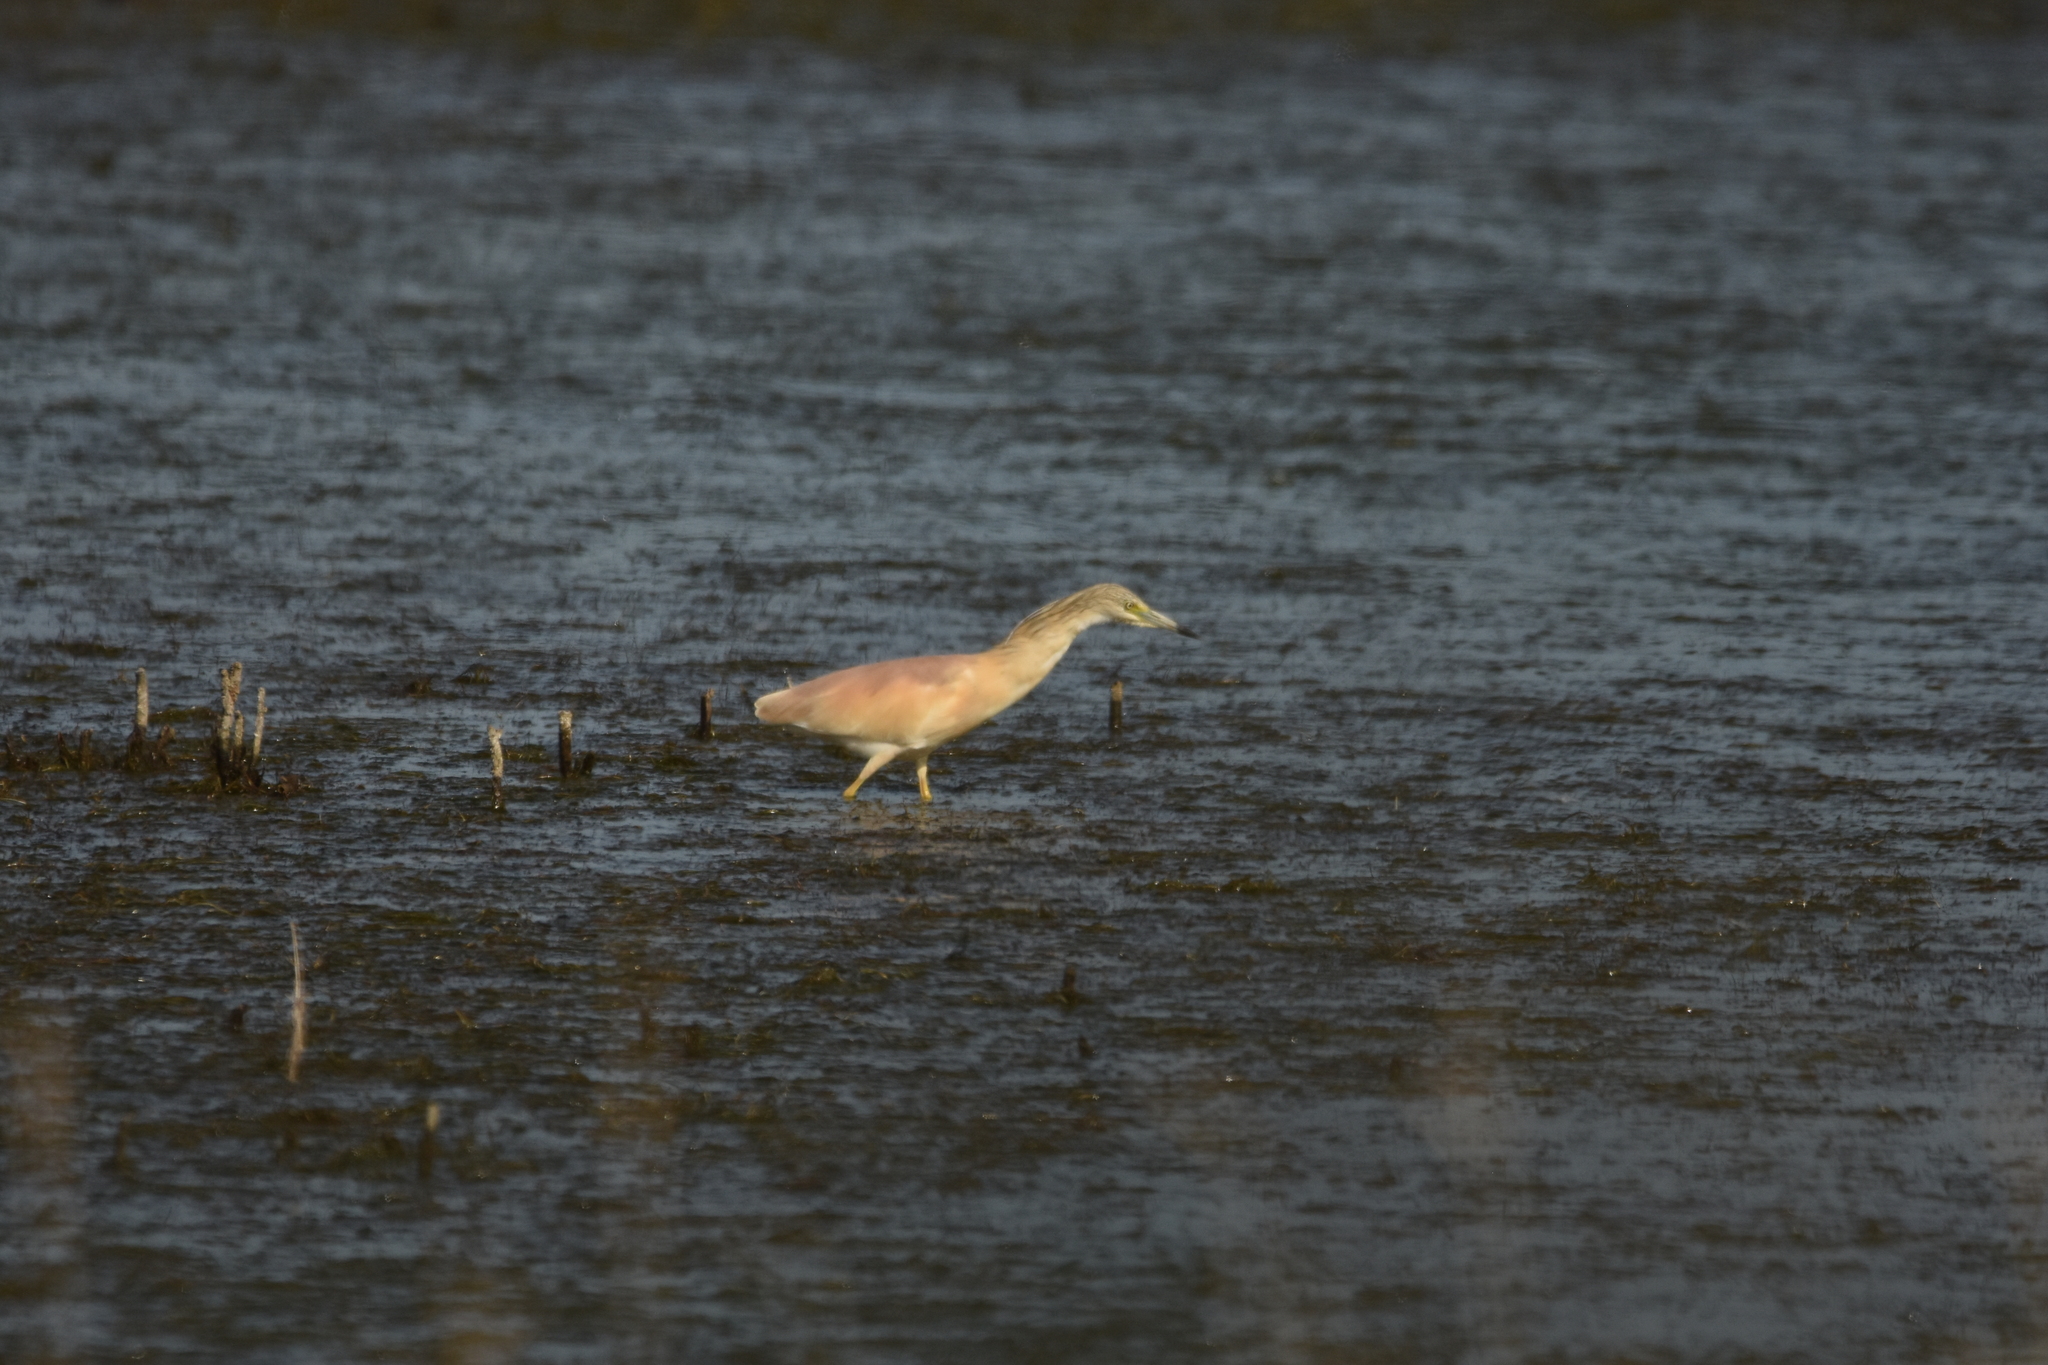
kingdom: Animalia
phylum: Chordata
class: Aves
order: Pelecaniformes
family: Ardeidae
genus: Ardeola
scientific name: Ardeola ralloides
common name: Squacco heron
